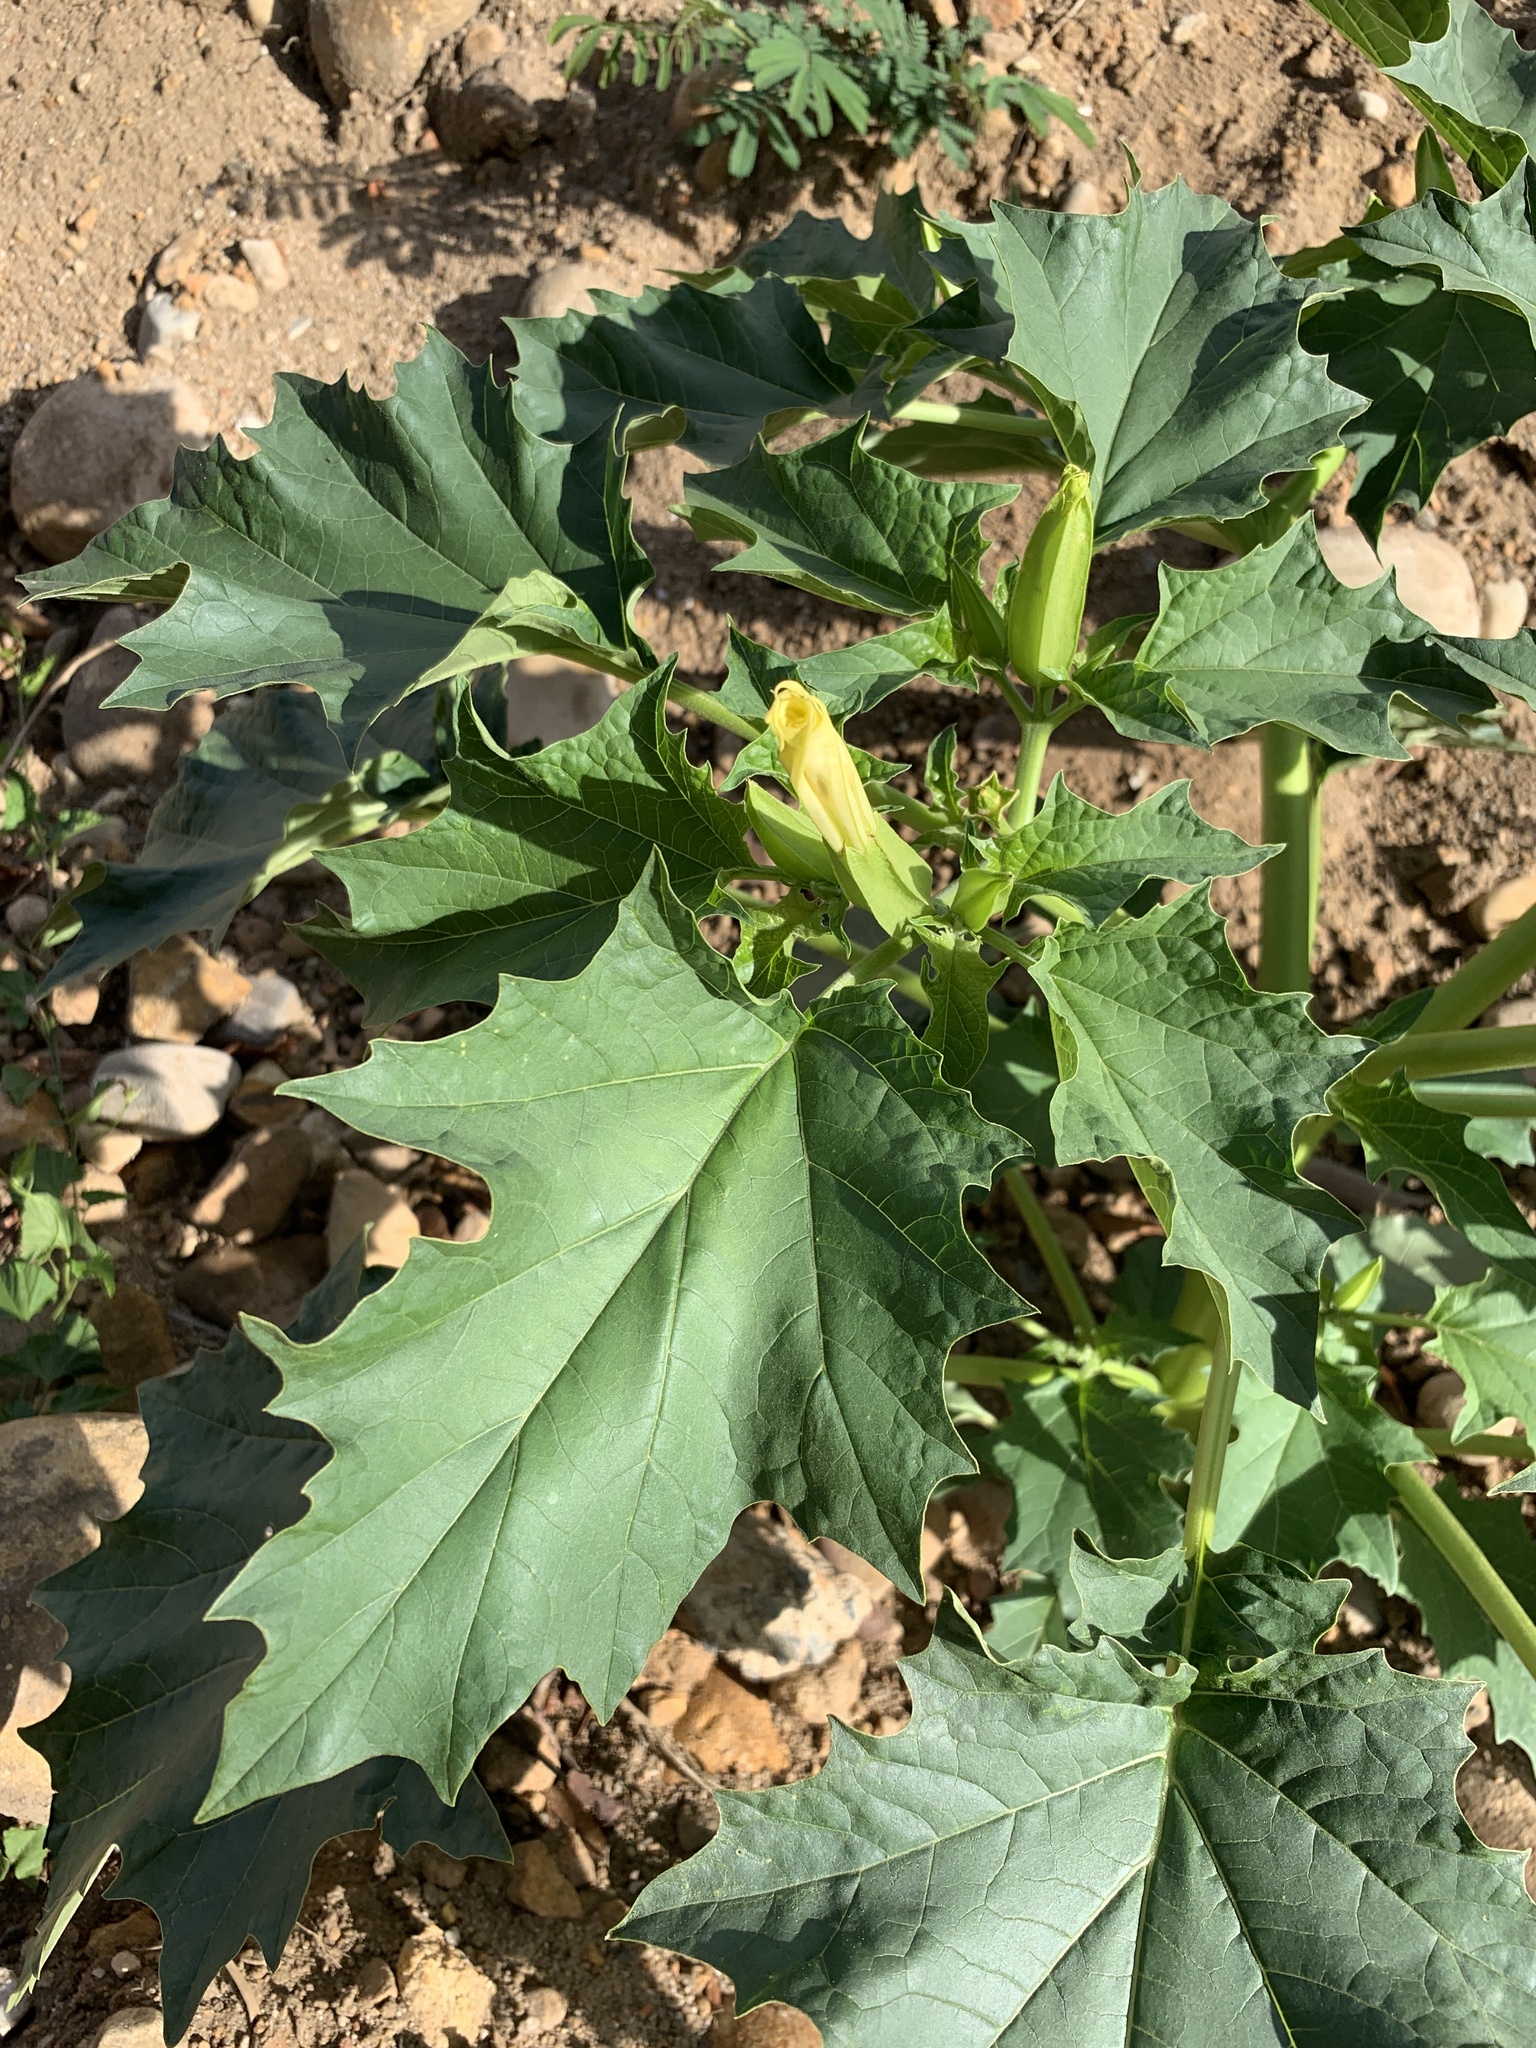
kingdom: Plantae
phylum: Tracheophyta
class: Magnoliopsida
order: Solanales
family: Solanaceae
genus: Datura
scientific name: Datura stramonium
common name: Thorn-apple
